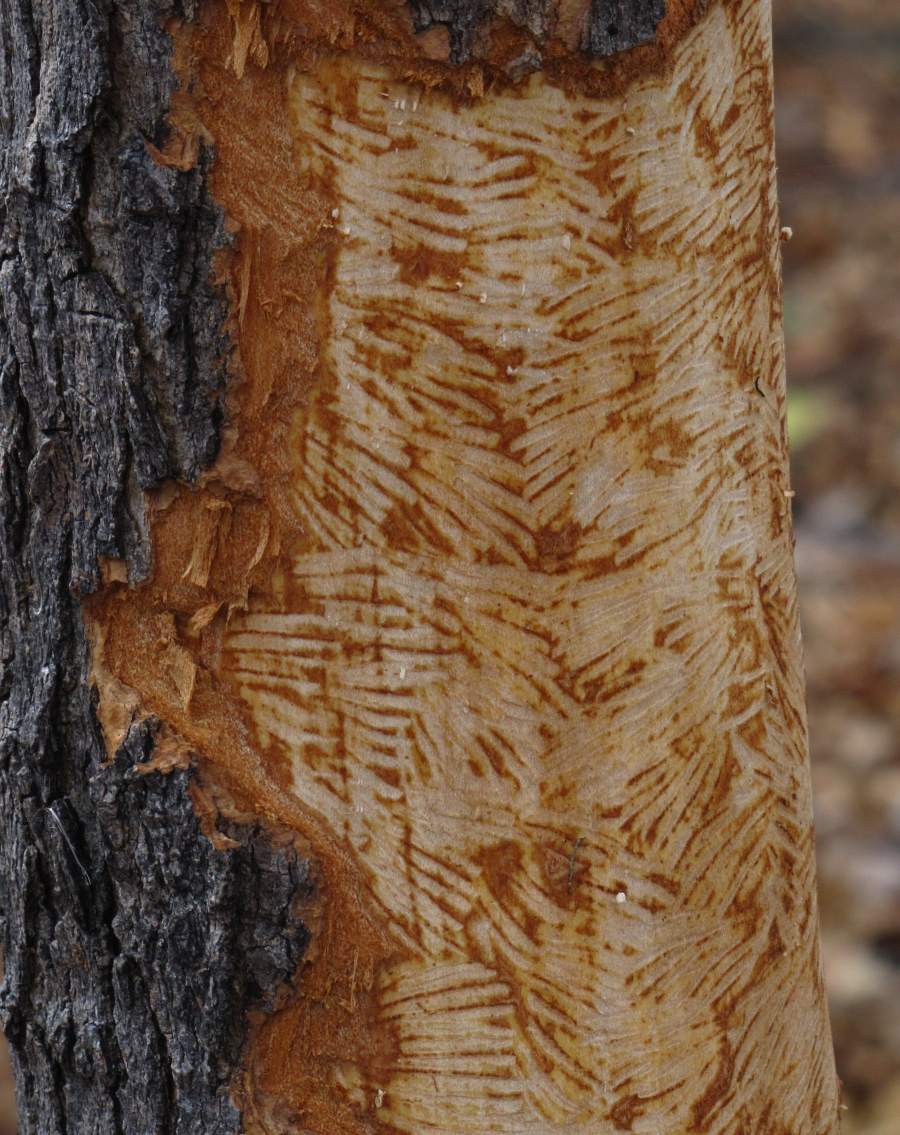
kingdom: Animalia
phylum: Chordata
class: Mammalia
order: Rodentia
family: Erethizontidae
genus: Erethizon
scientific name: Erethizon dorsatus
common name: North american porcupine
